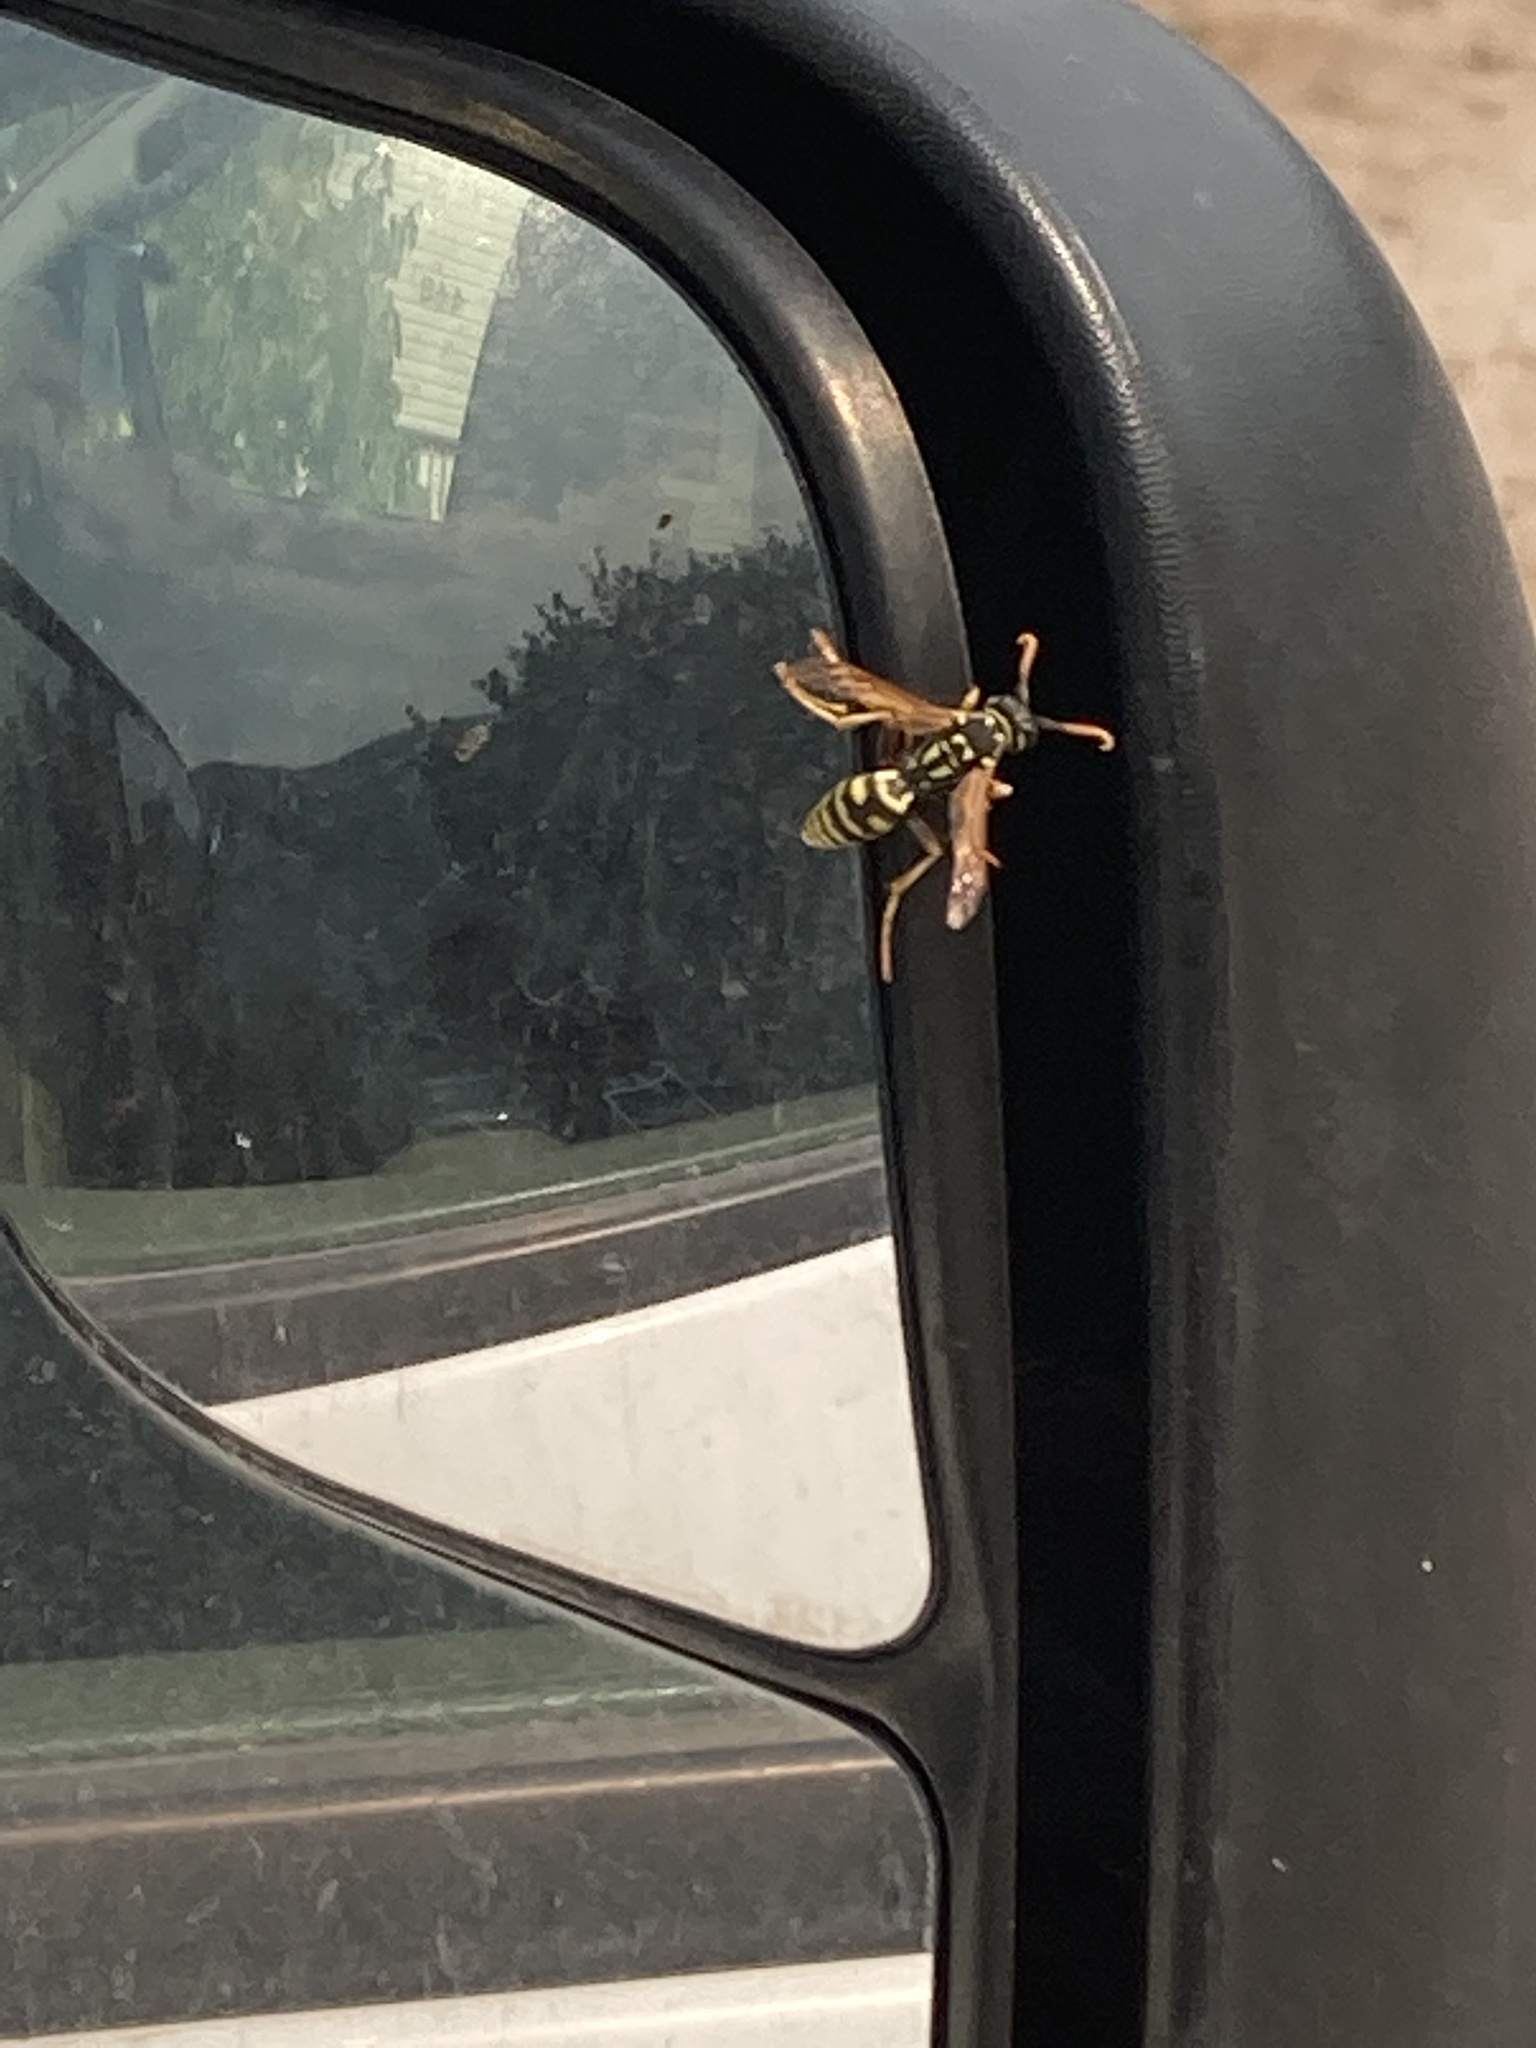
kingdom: Animalia
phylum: Arthropoda
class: Insecta
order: Hymenoptera
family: Eumenidae
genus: Polistes
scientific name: Polistes dominula
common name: Paper wasp
